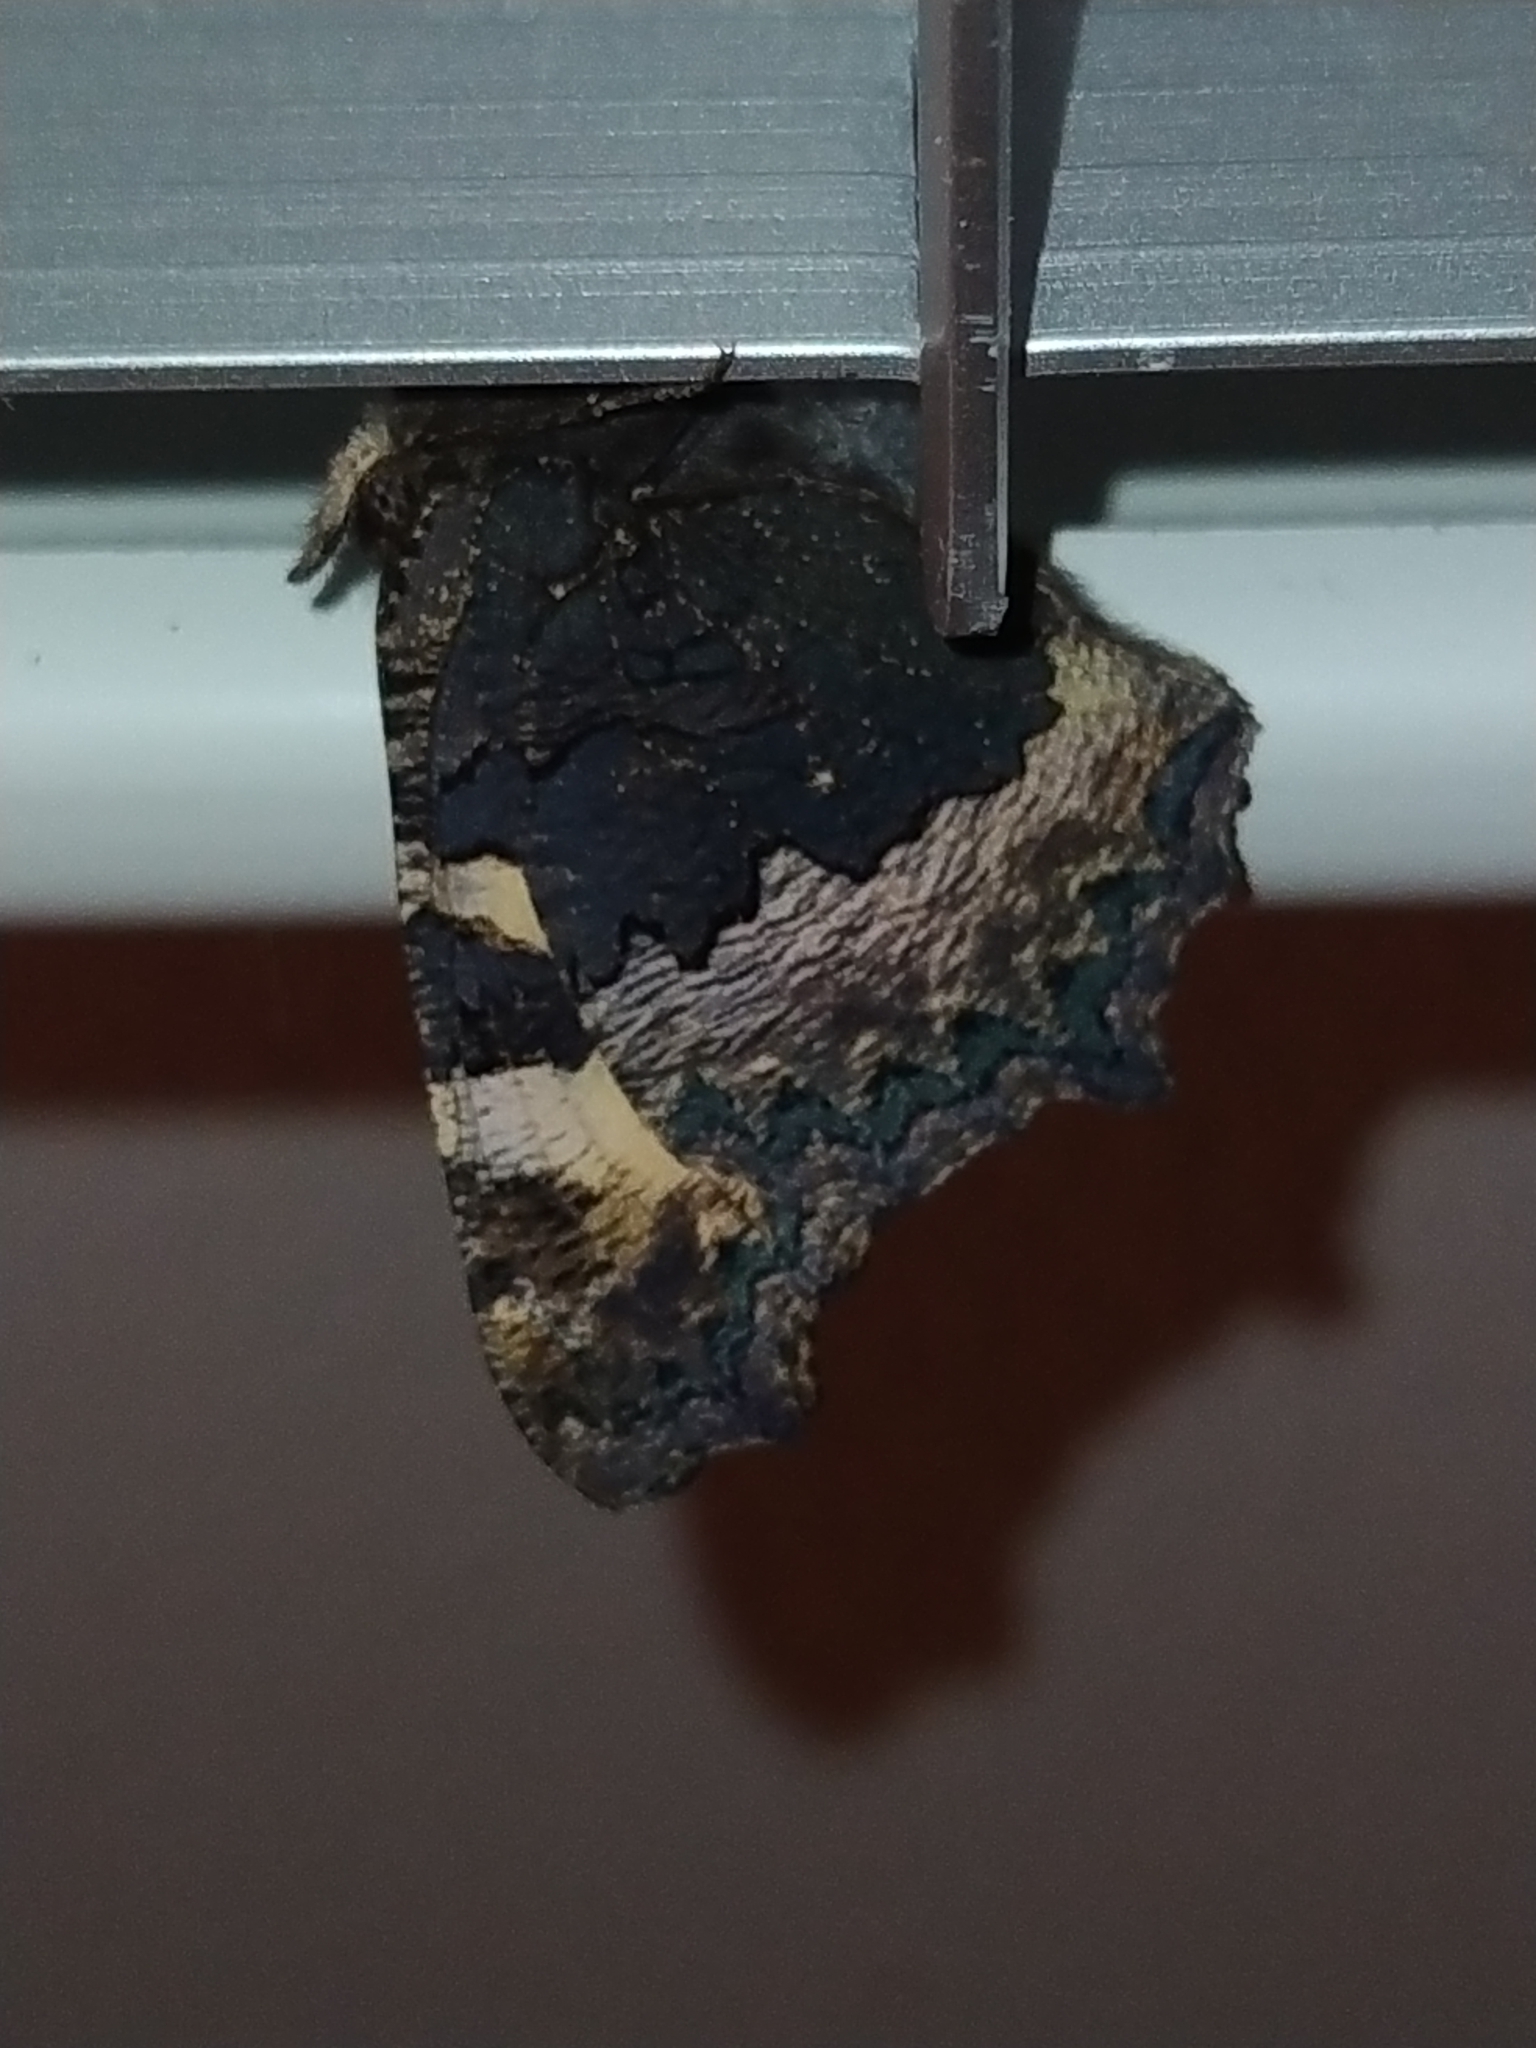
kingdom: Animalia
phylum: Arthropoda
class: Insecta
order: Lepidoptera
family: Nymphalidae
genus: Aglais
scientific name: Aglais urticae
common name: Small tortoiseshell
